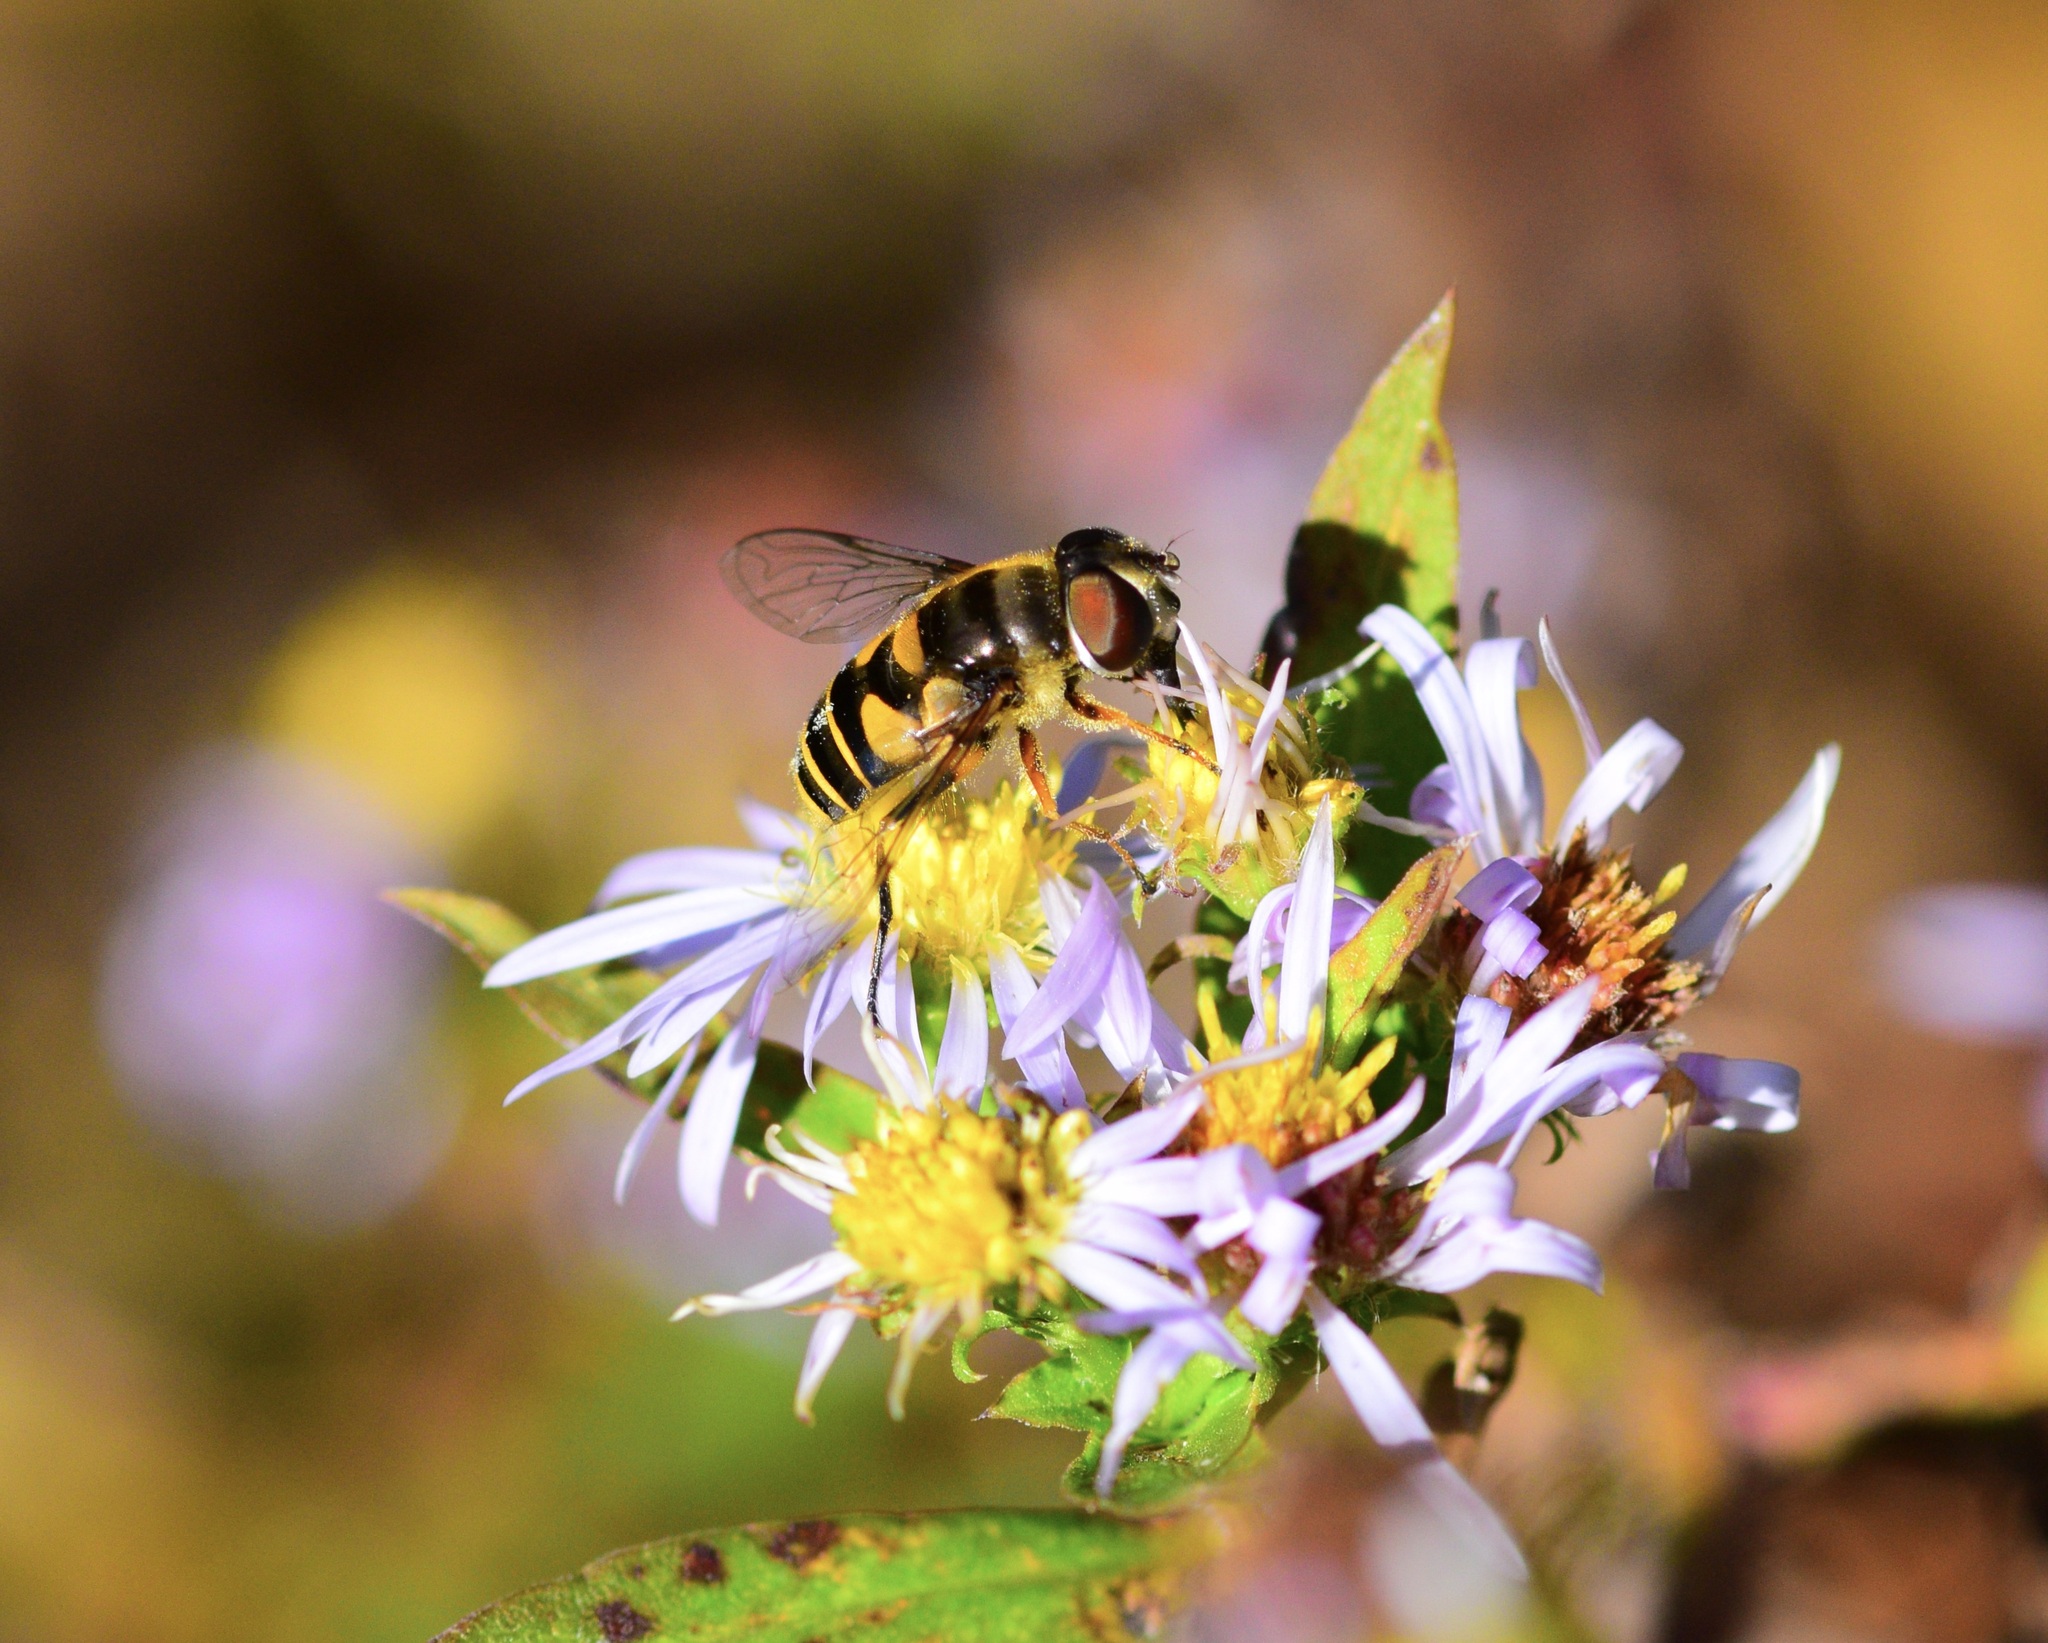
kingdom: Animalia
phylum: Arthropoda
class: Insecta
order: Diptera
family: Syrphidae
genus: Eristalis
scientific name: Eristalis transversa
